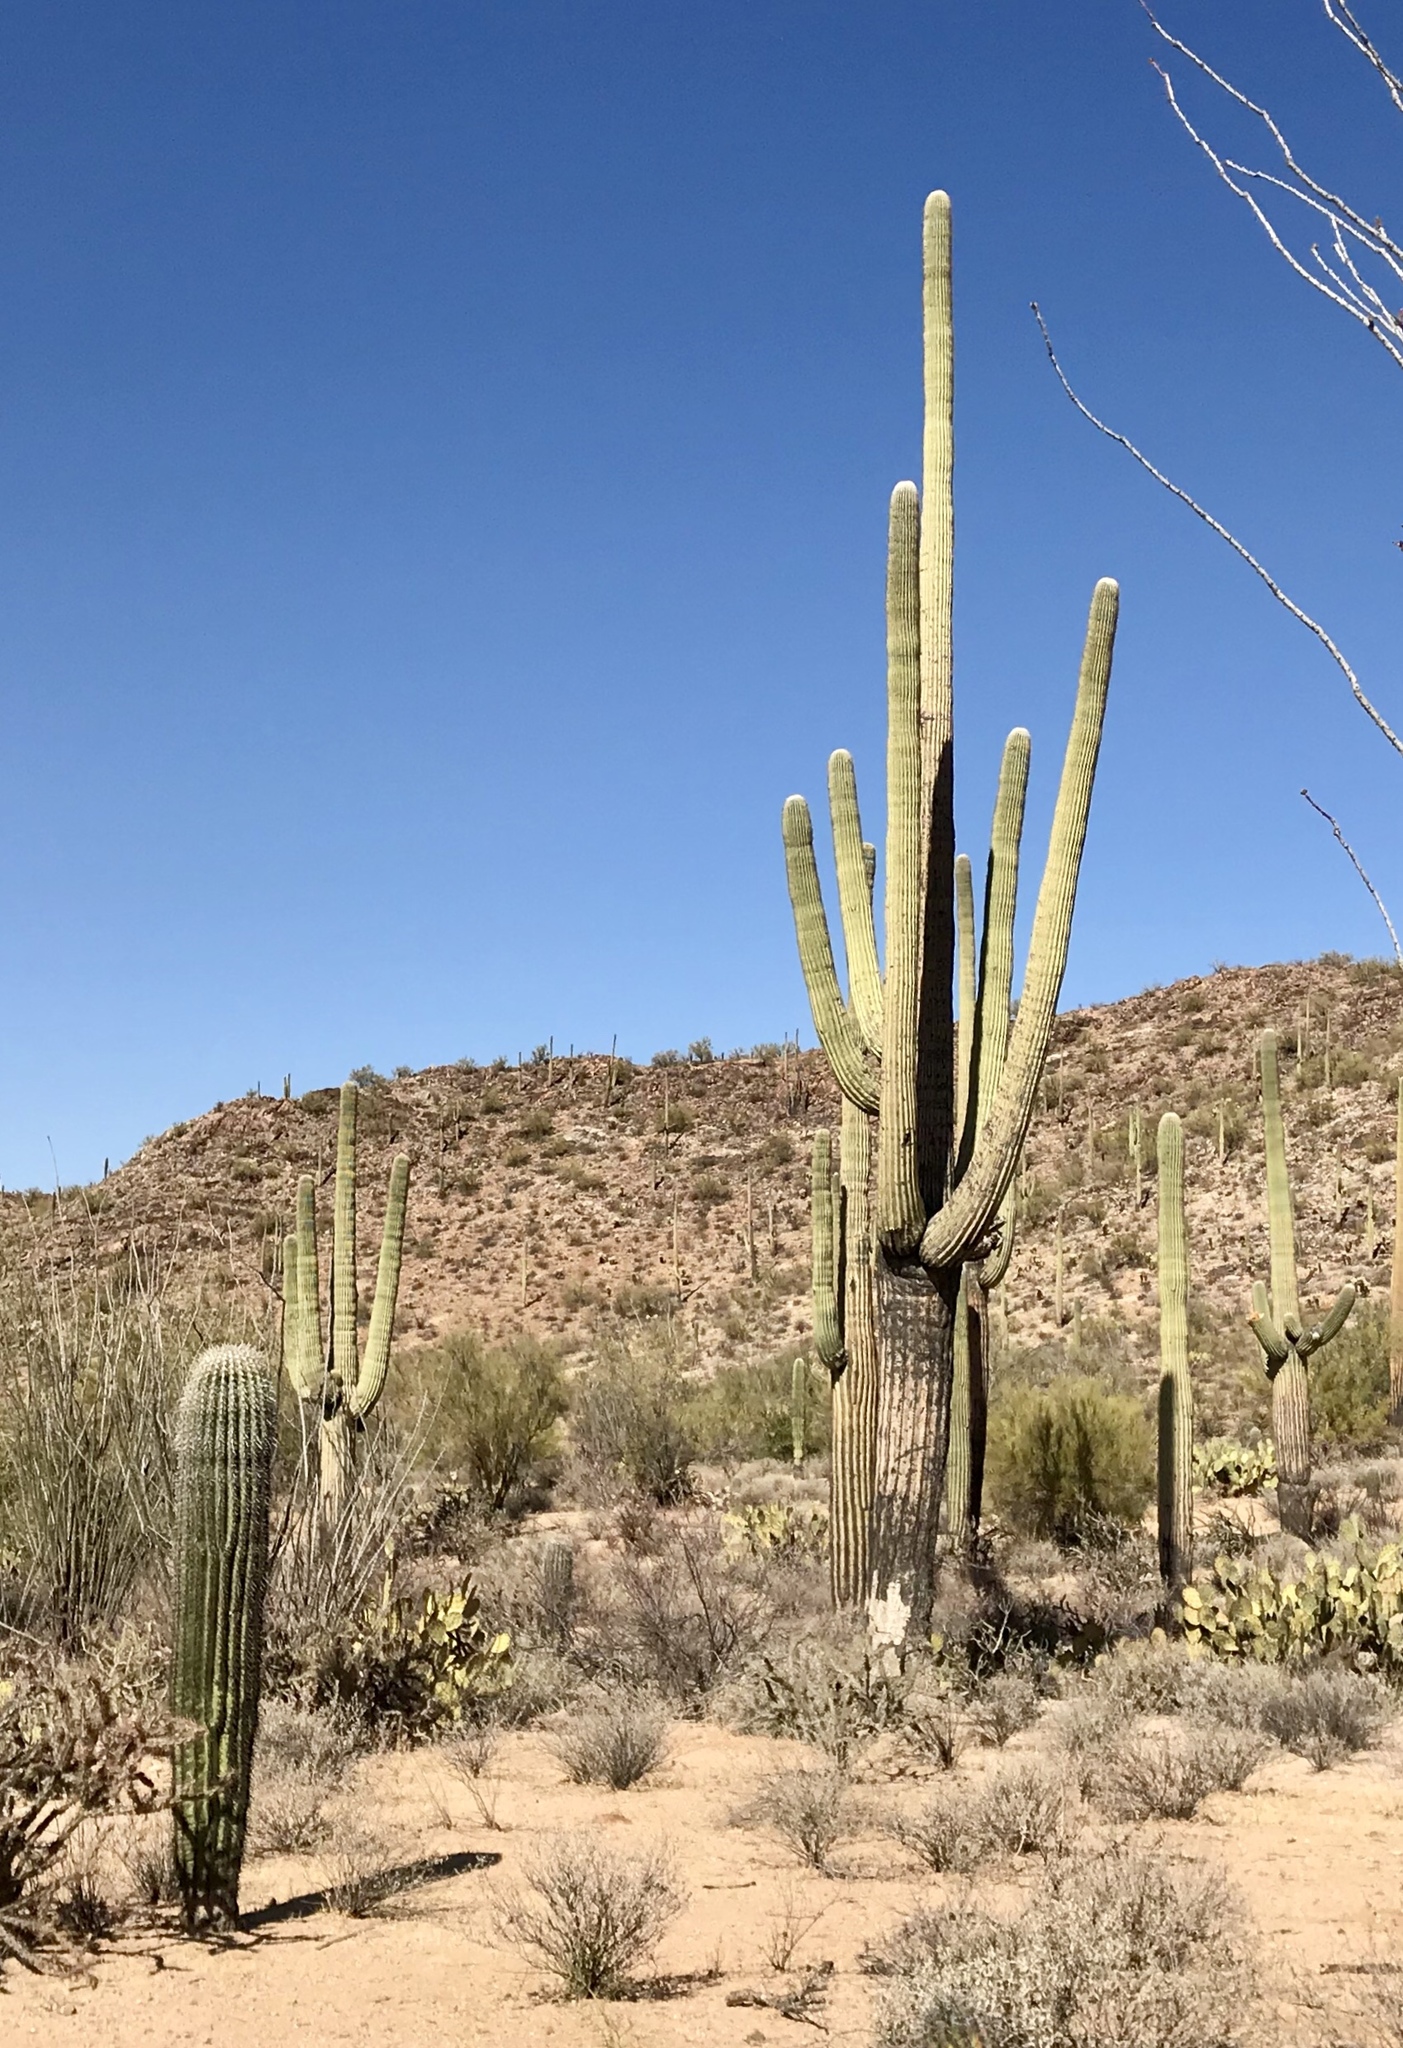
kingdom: Plantae
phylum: Tracheophyta
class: Magnoliopsida
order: Caryophyllales
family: Cactaceae
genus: Carnegiea
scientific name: Carnegiea gigantea
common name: Saguaro
